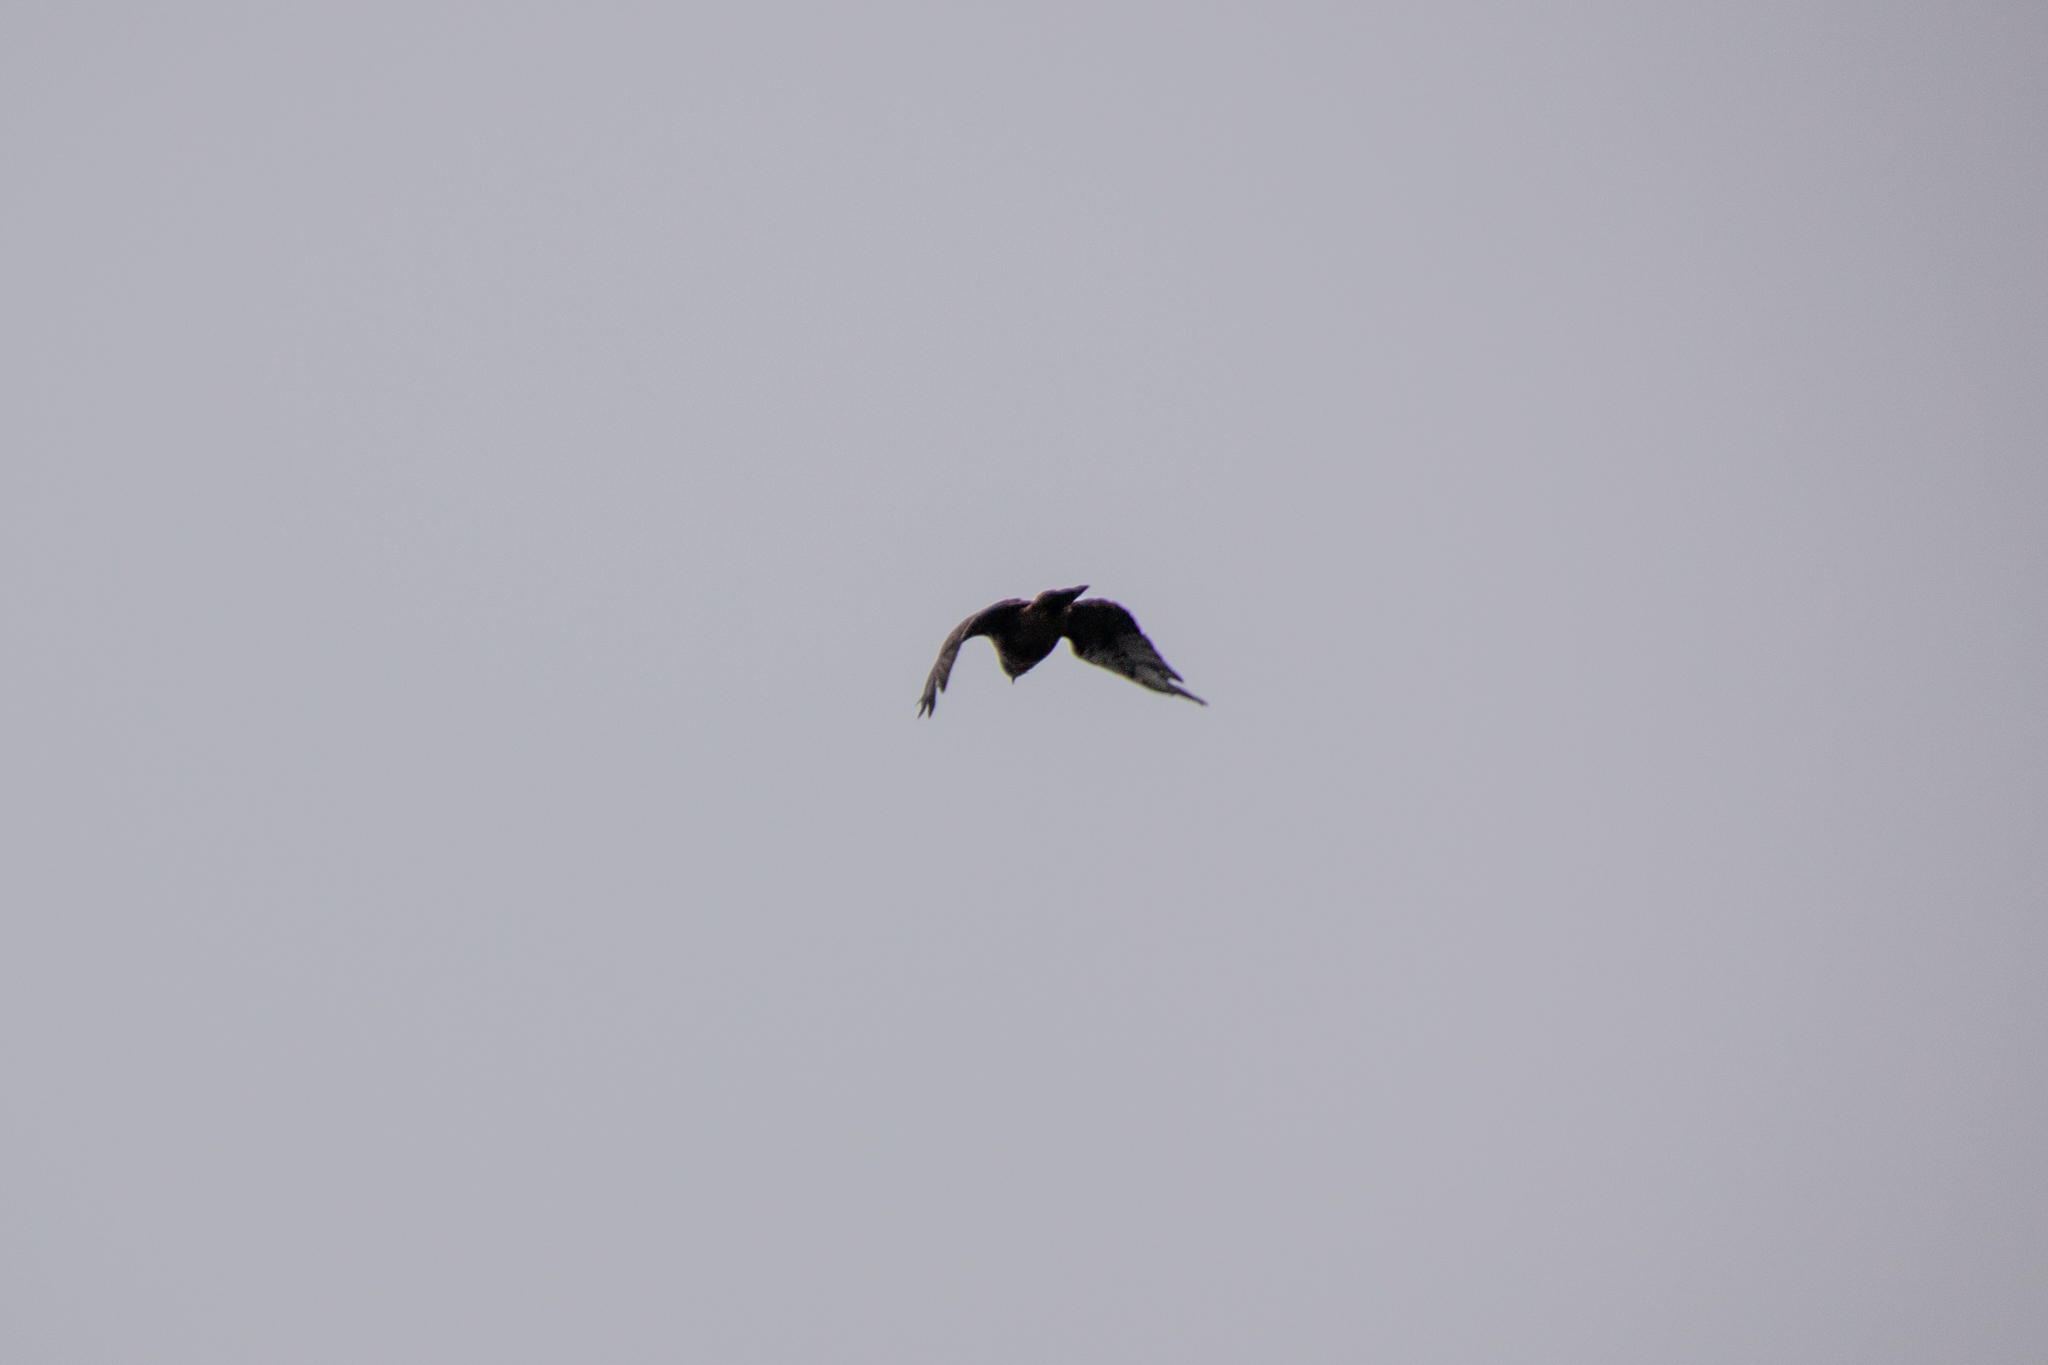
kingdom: Animalia
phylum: Chordata
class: Aves
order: Accipitriformes
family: Accipitridae
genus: Buteo
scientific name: Buteo jamaicensis
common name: Red-tailed hawk
